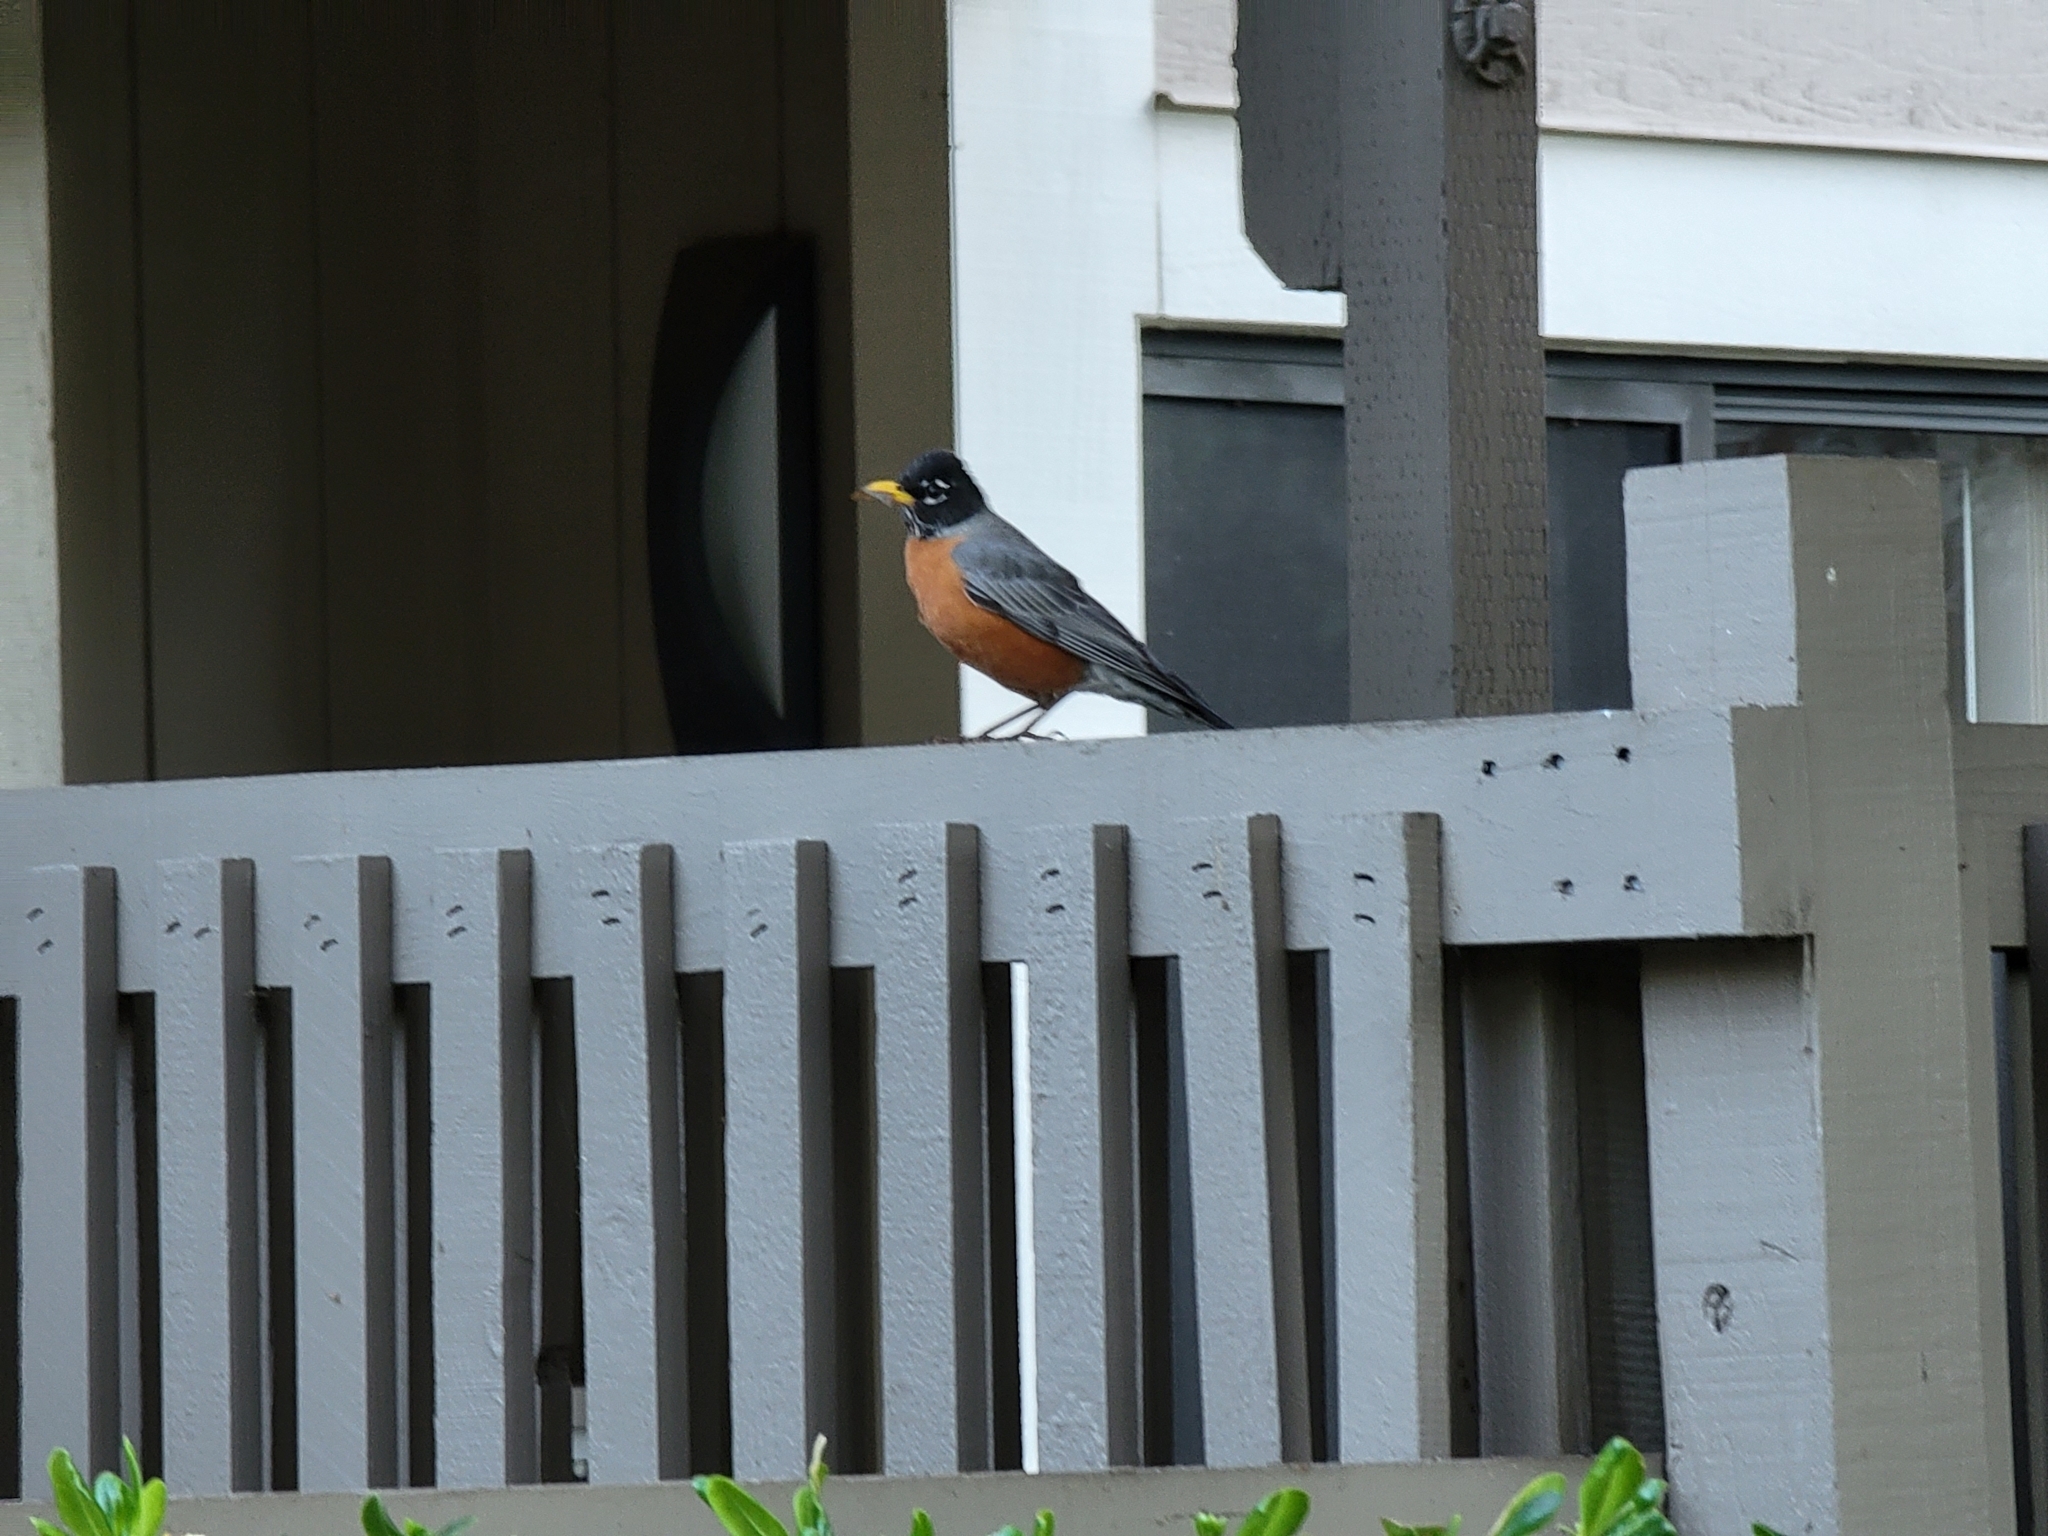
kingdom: Animalia
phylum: Chordata
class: Aves
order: Passeriformes
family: Turdidae
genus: Turdus
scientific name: Turdus migratorius
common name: American robin
